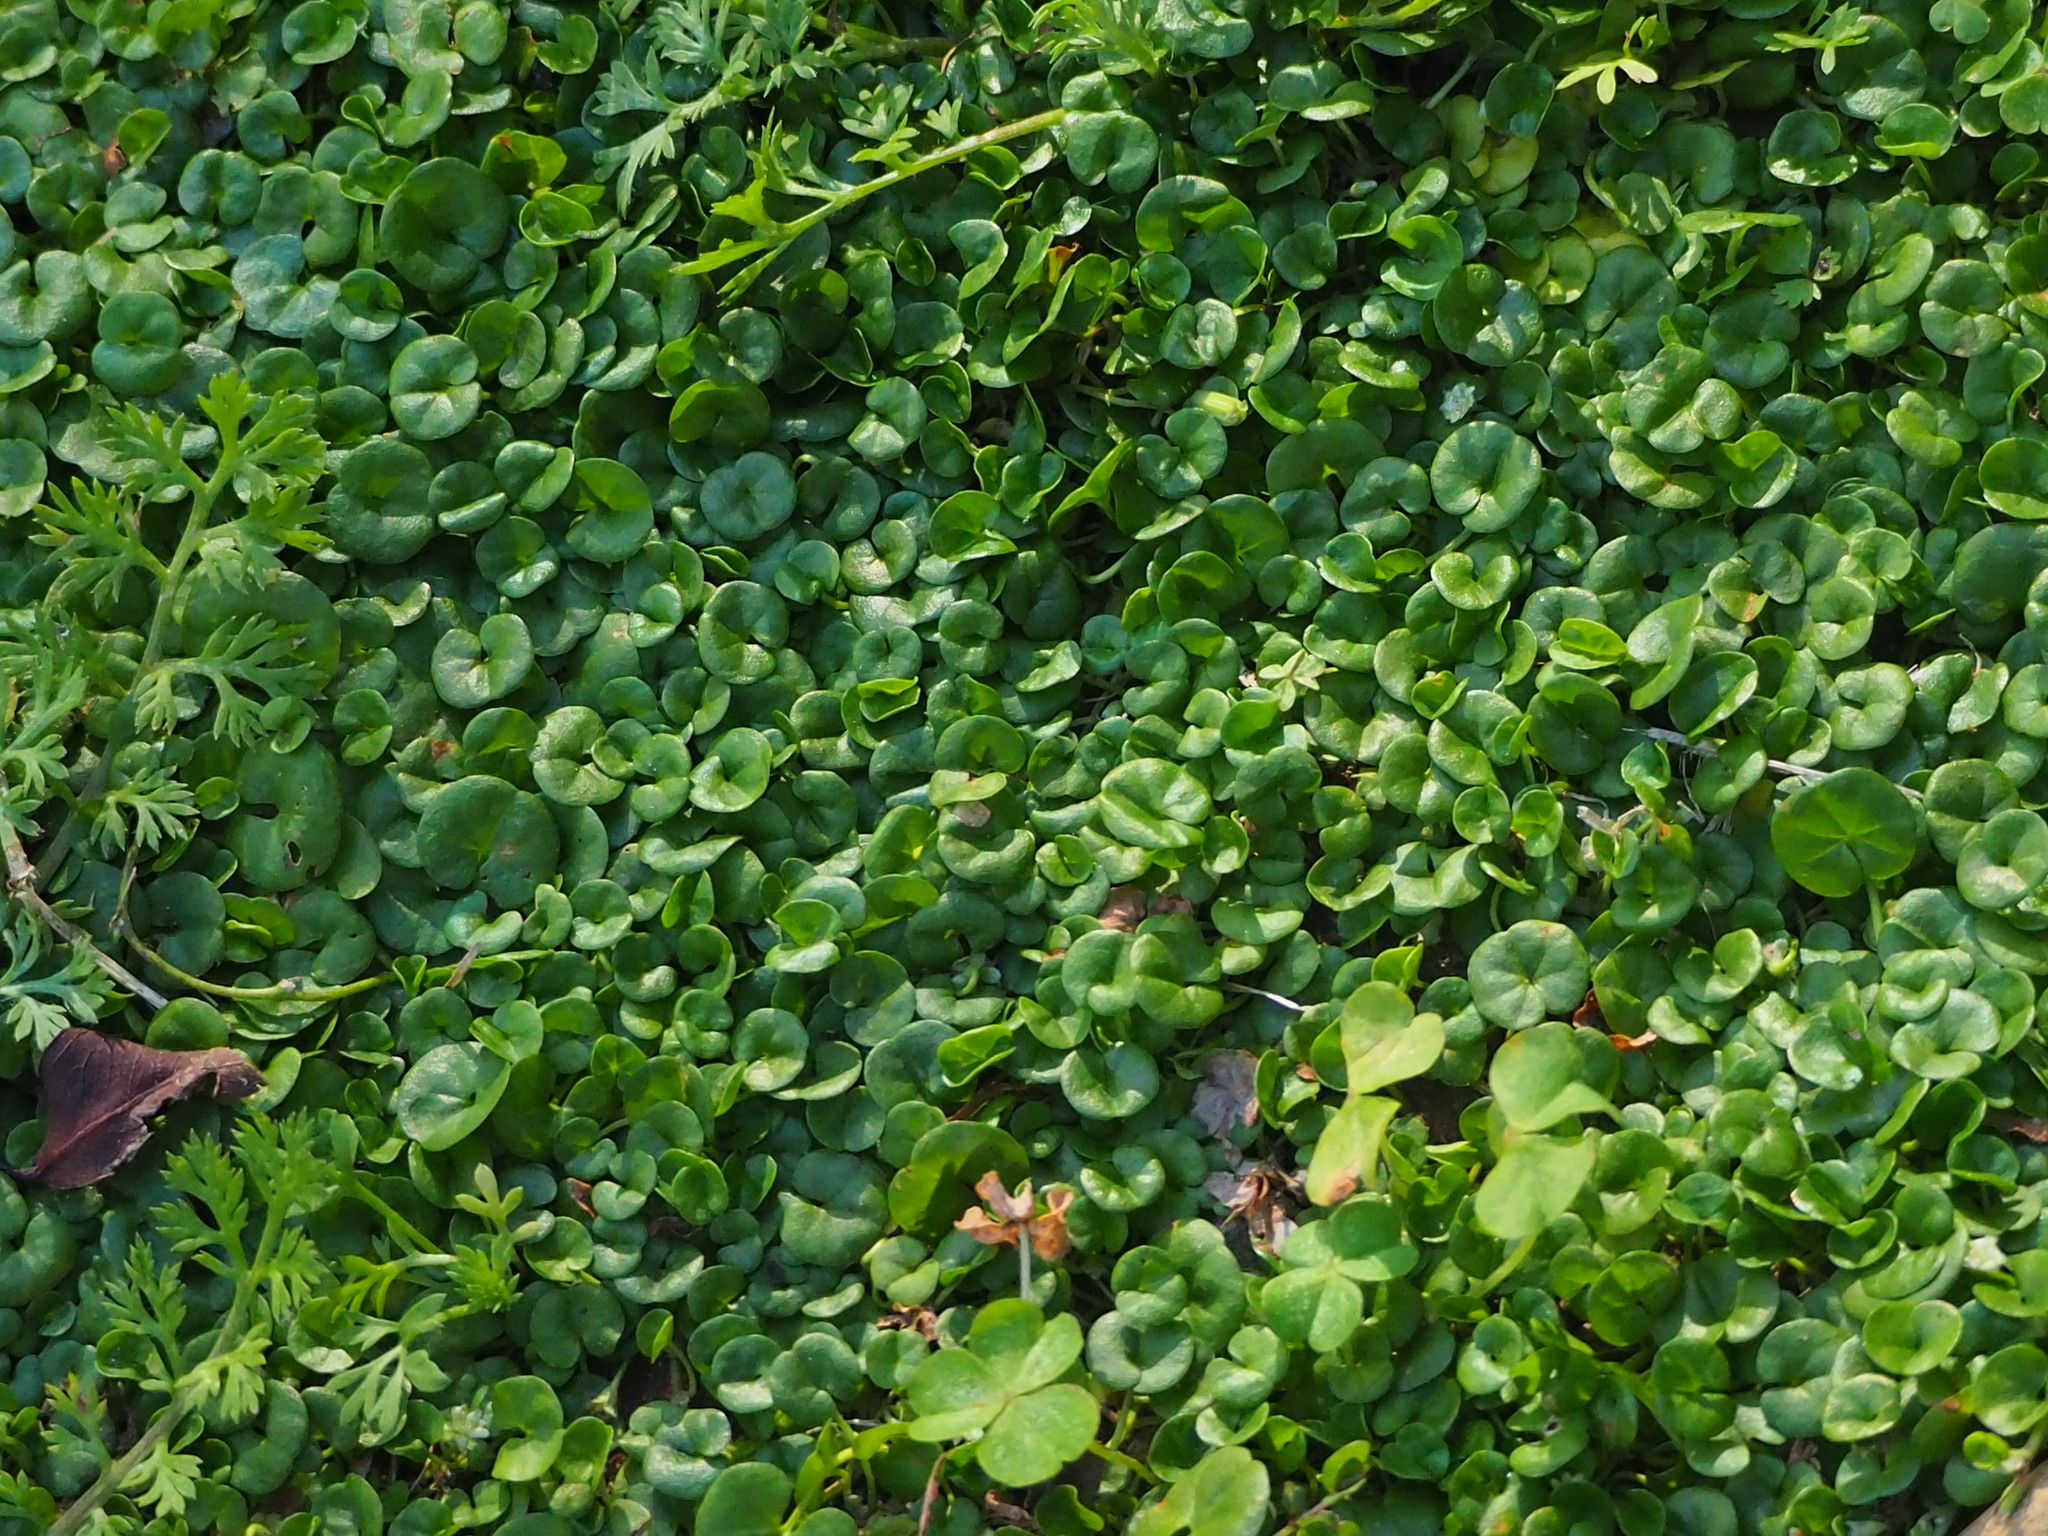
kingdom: Plantae
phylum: Tracheophyta
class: Magnoliopsida
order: Solanales
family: Convolvulaceae
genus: Dichondra
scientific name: Dichondra micrantha
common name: Kidneyweed
